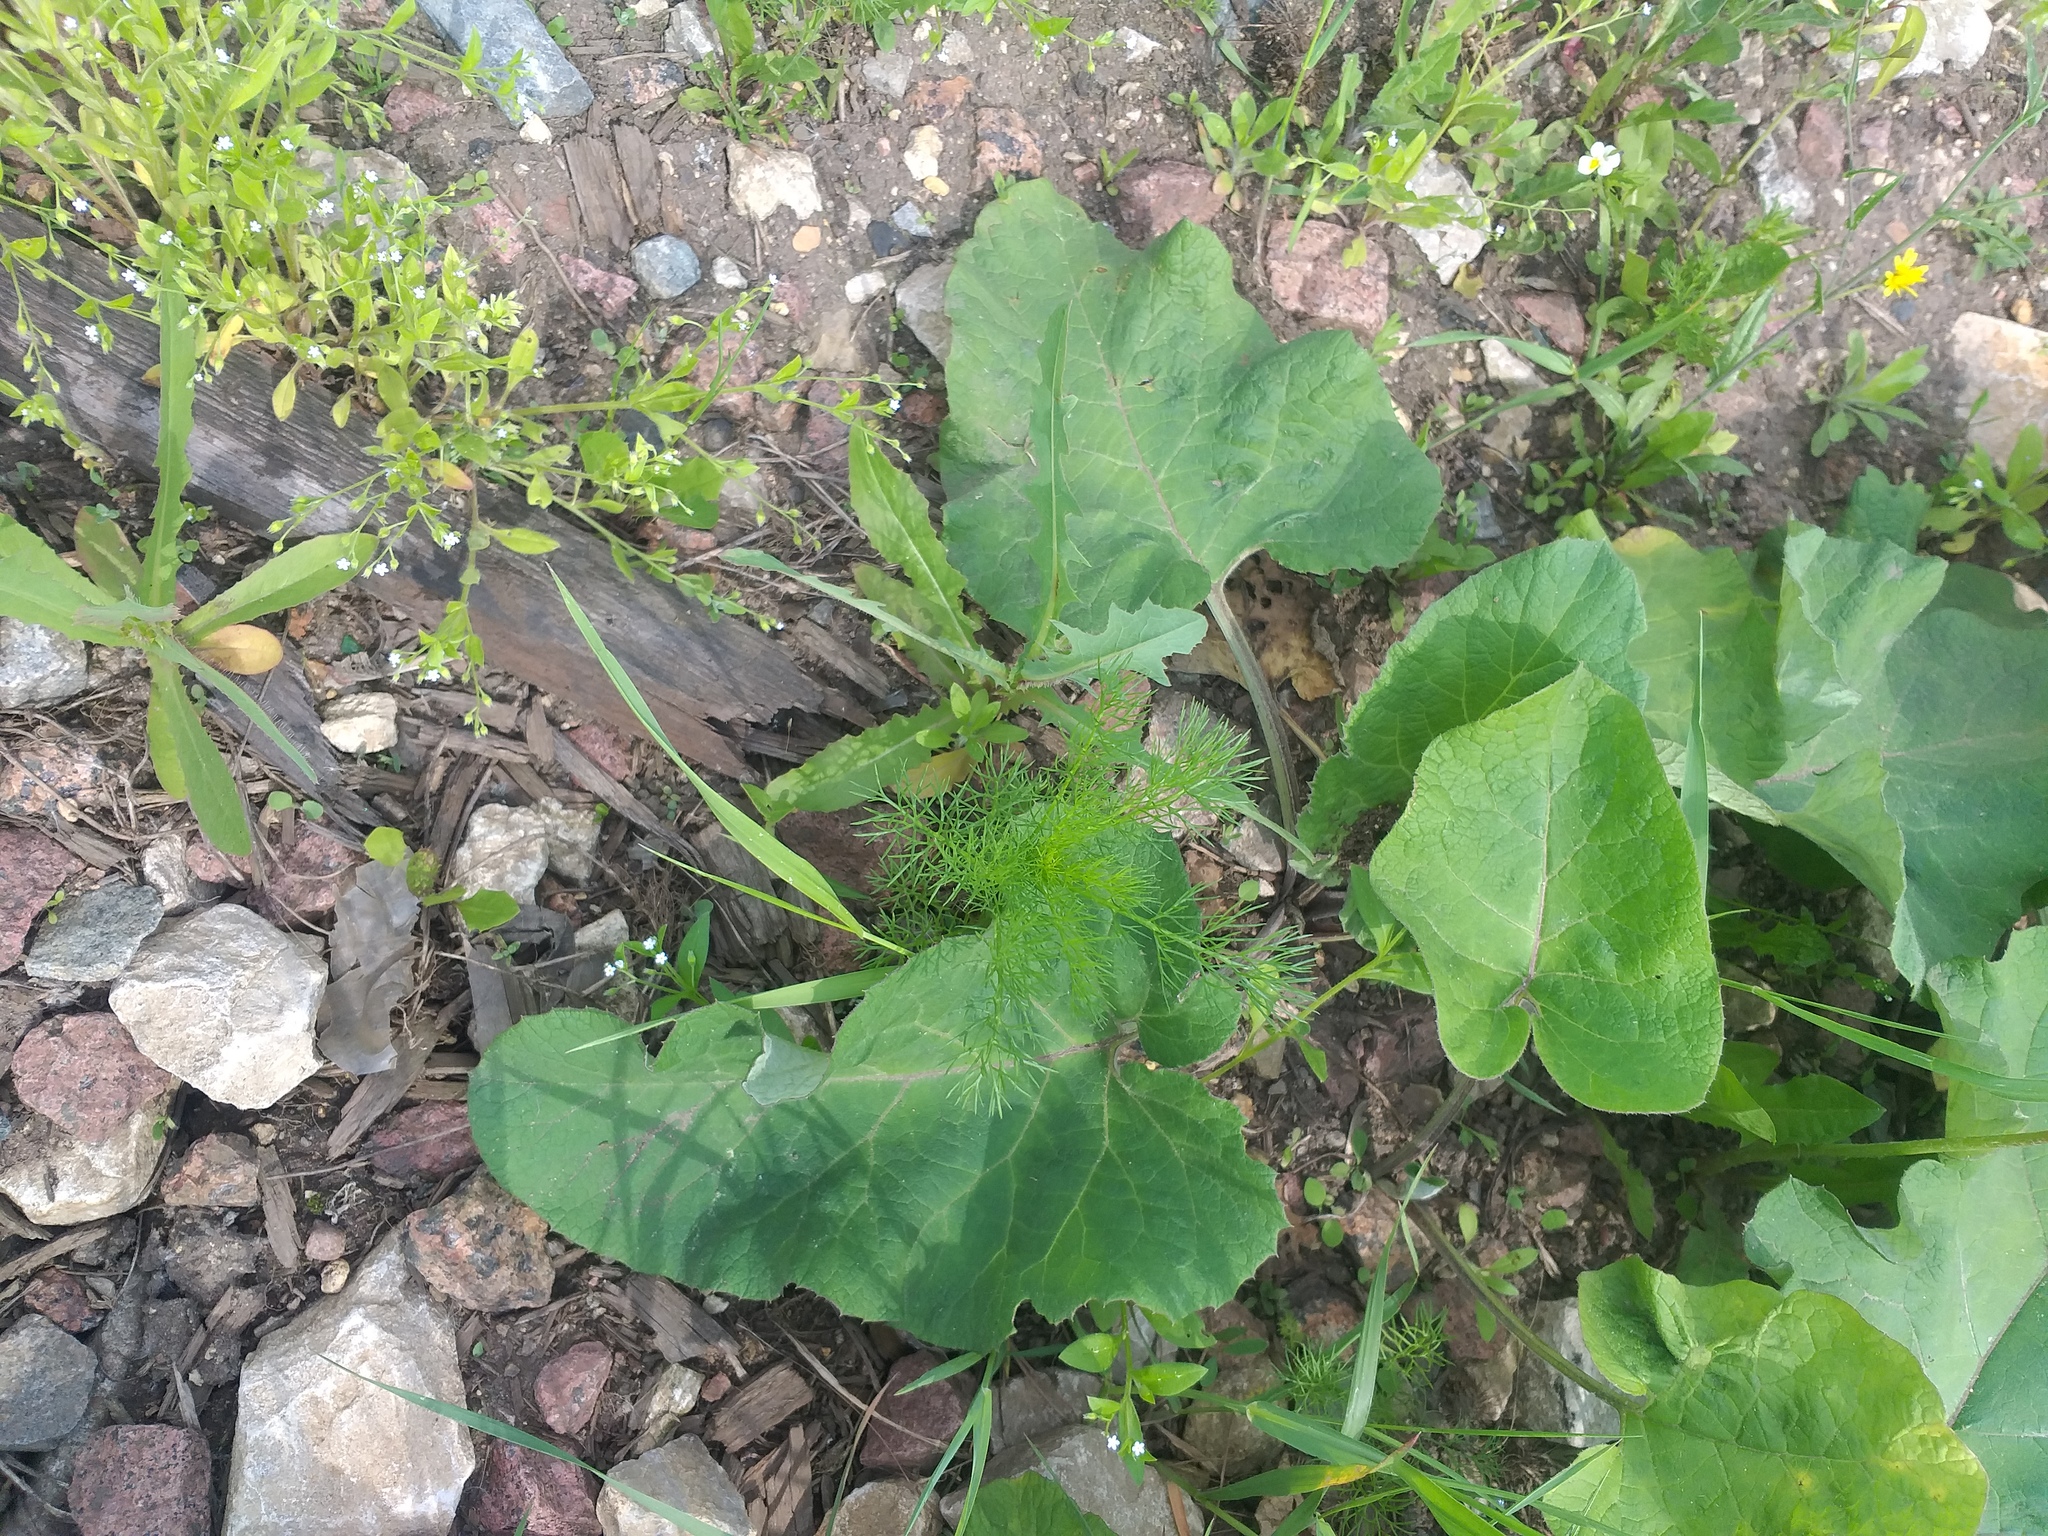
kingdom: Plantae
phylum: Tracheophyta
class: Magnoliopsida
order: Asterales
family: Asteraceae
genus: Tripleurospermum
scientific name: Tripleurospermum inodorum
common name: Scentless mayweed
